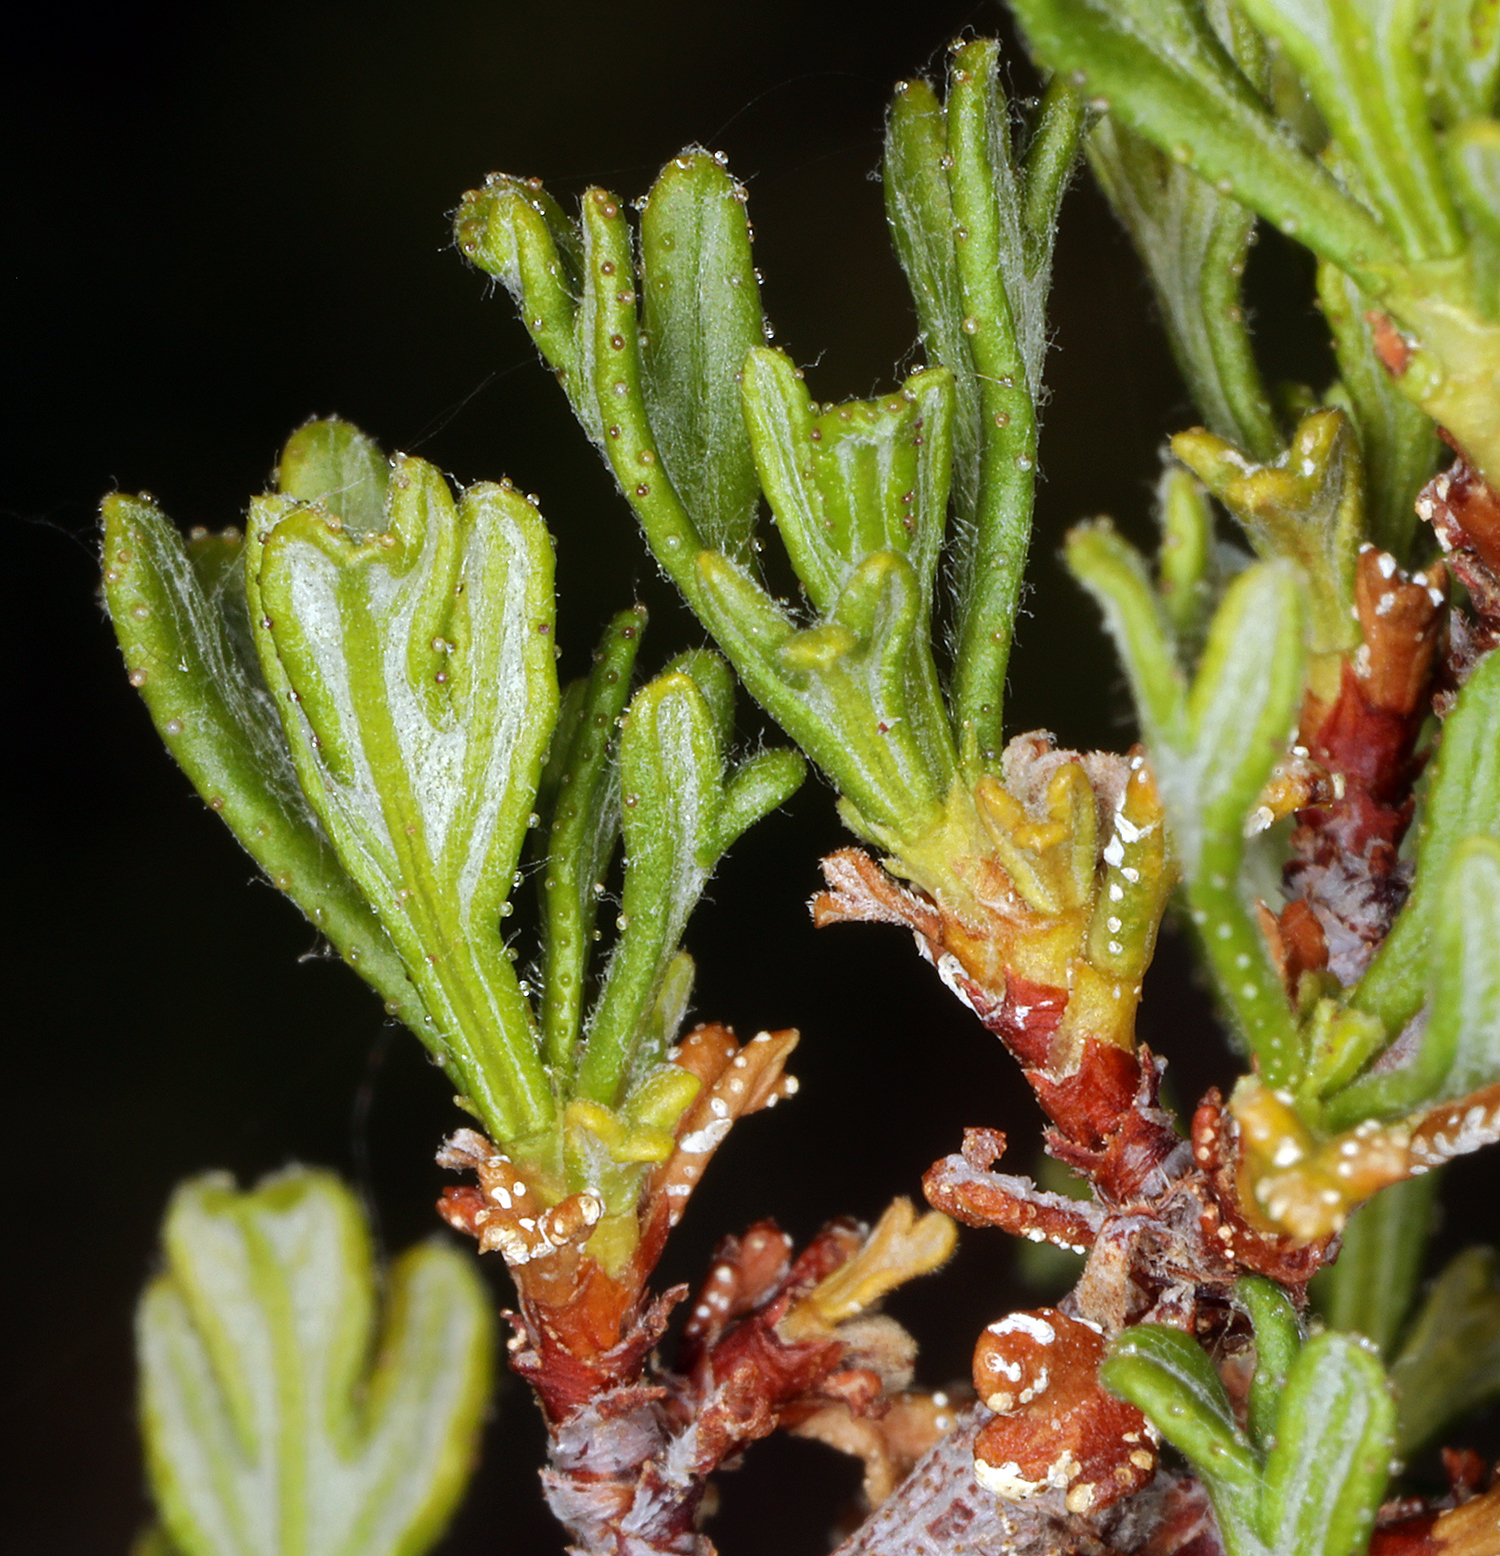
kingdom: Plantae
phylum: Tracheophyta
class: Magnoliopsida
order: Rosales
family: Rosaceae
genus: Purshia
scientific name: Purshia glandulosa
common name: Desert bitterbrush
